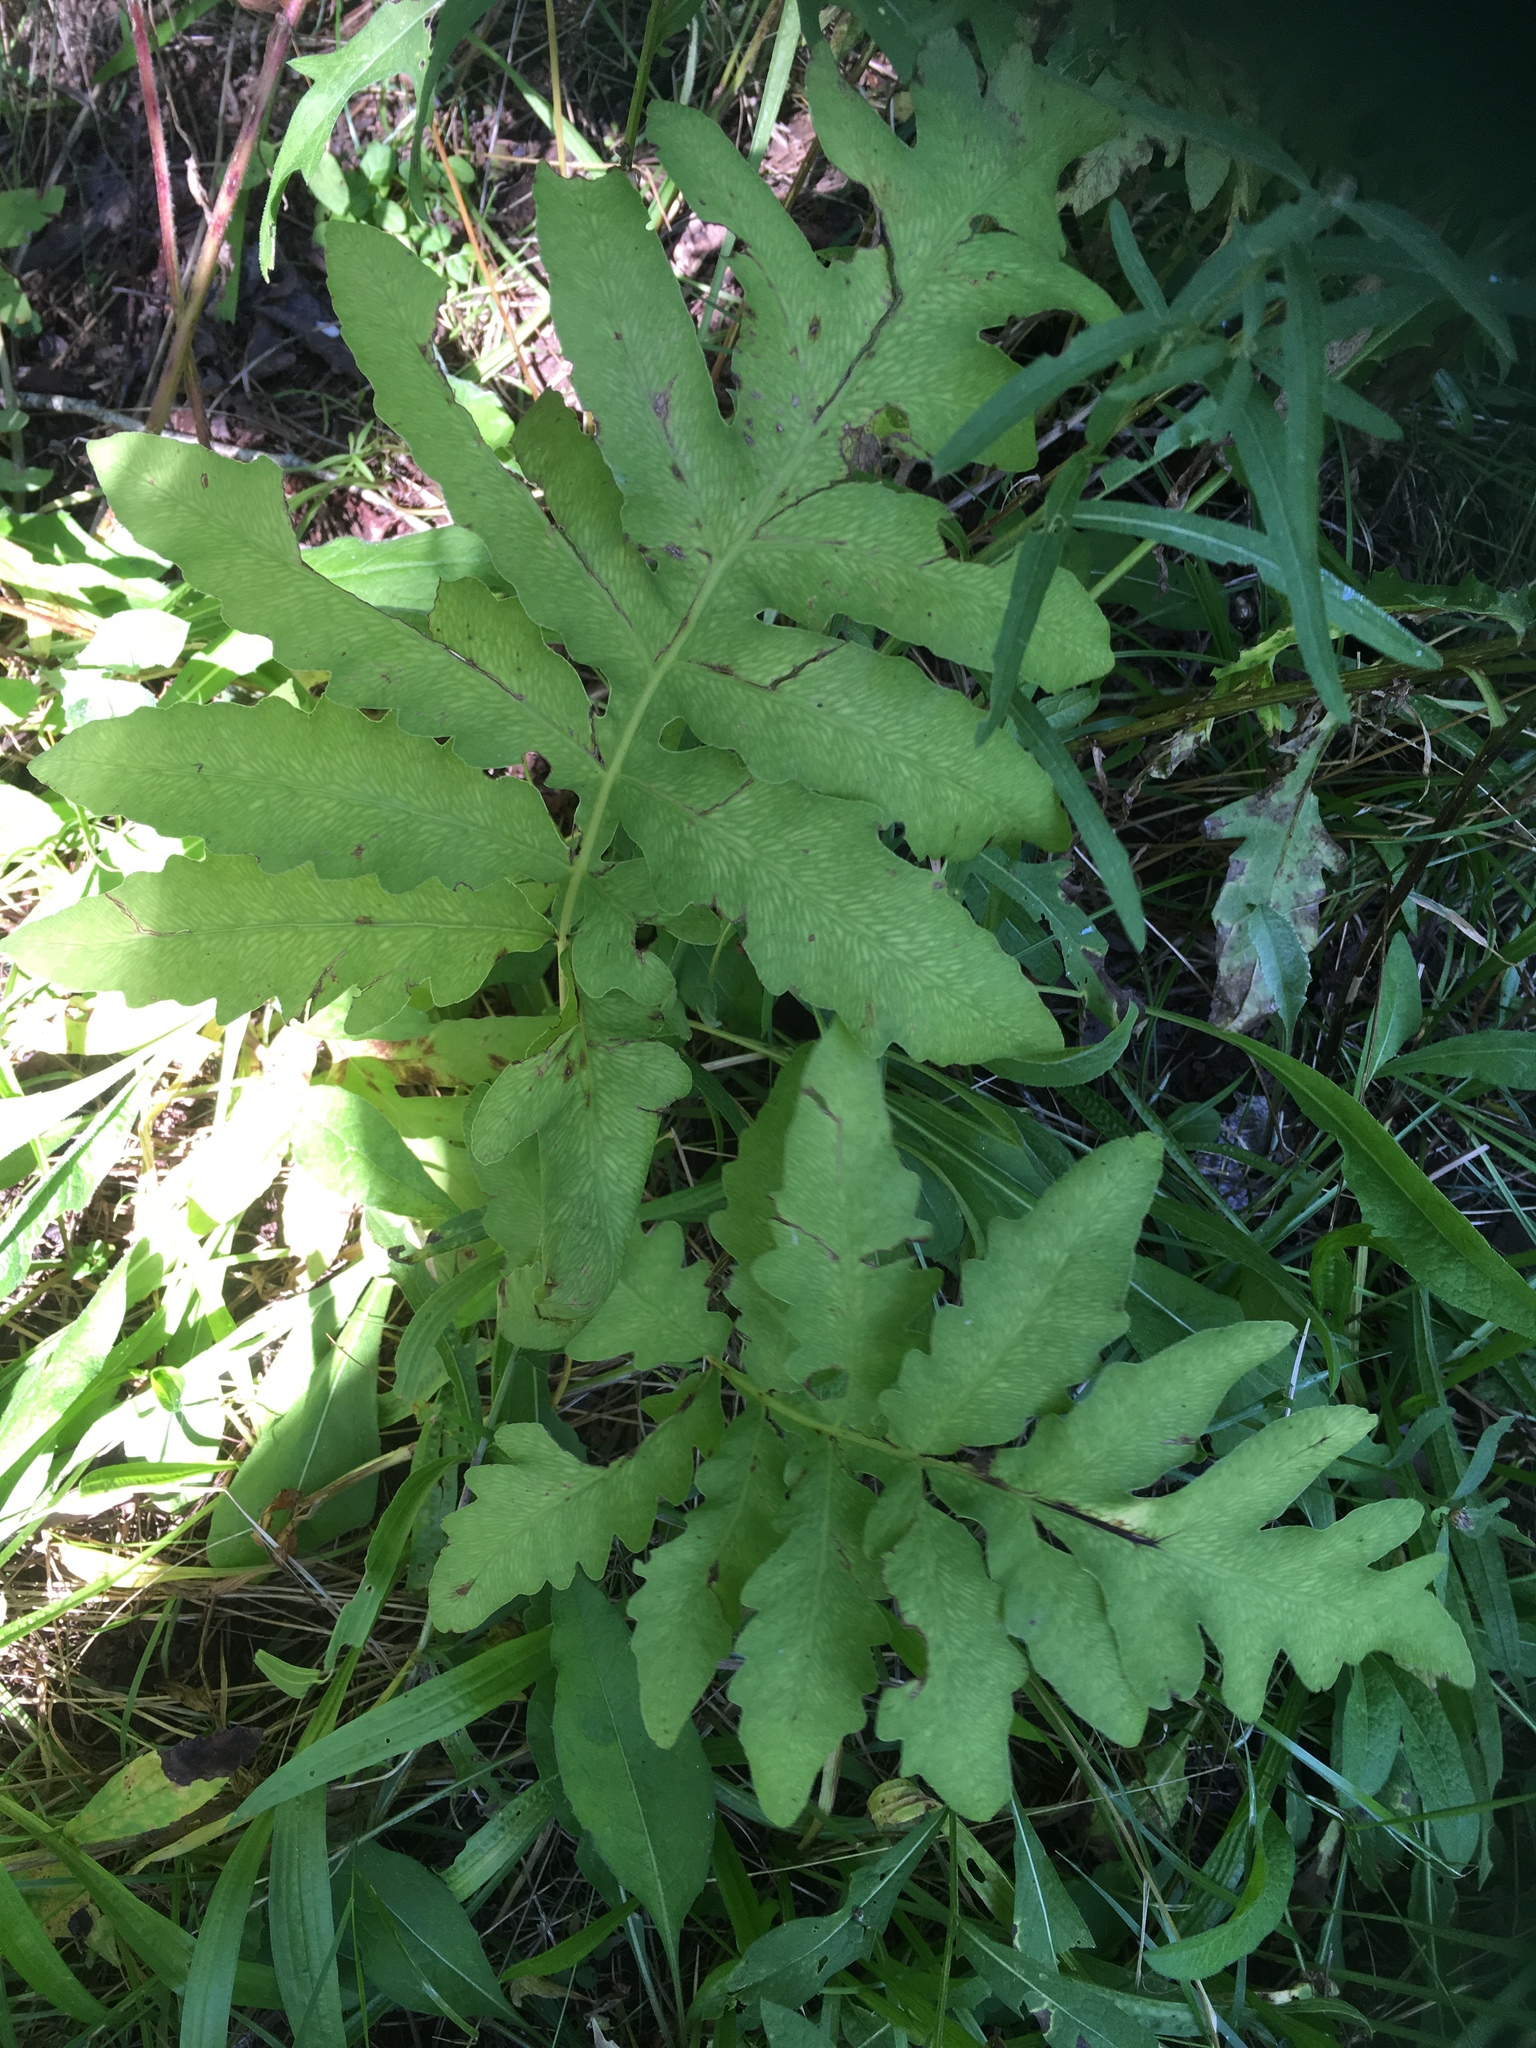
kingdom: Plantae
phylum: Tracheophyta
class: Polypodiopsida
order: Polypodiales
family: Onocleaceae
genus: Onoclea
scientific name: Onoclea sensibilis
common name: Sensitive fern
